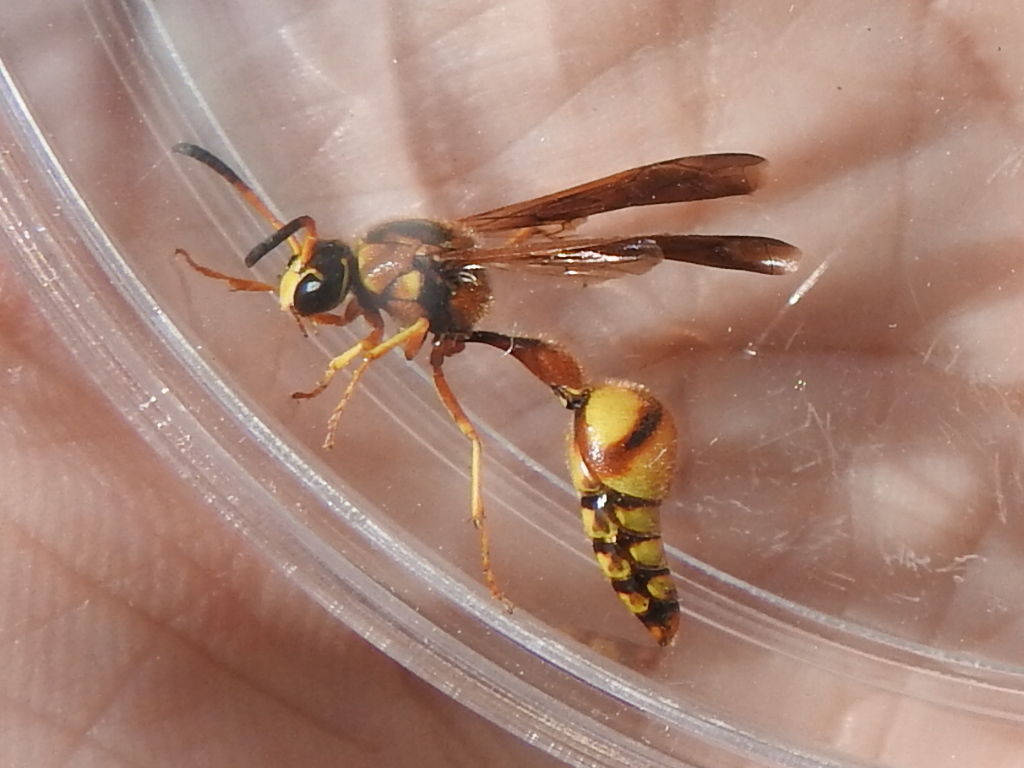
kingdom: Animalia
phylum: Arthropoda
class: Insecta
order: Hymenoptera
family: Vespidae
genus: Eumenes
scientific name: Eumenes bollii
